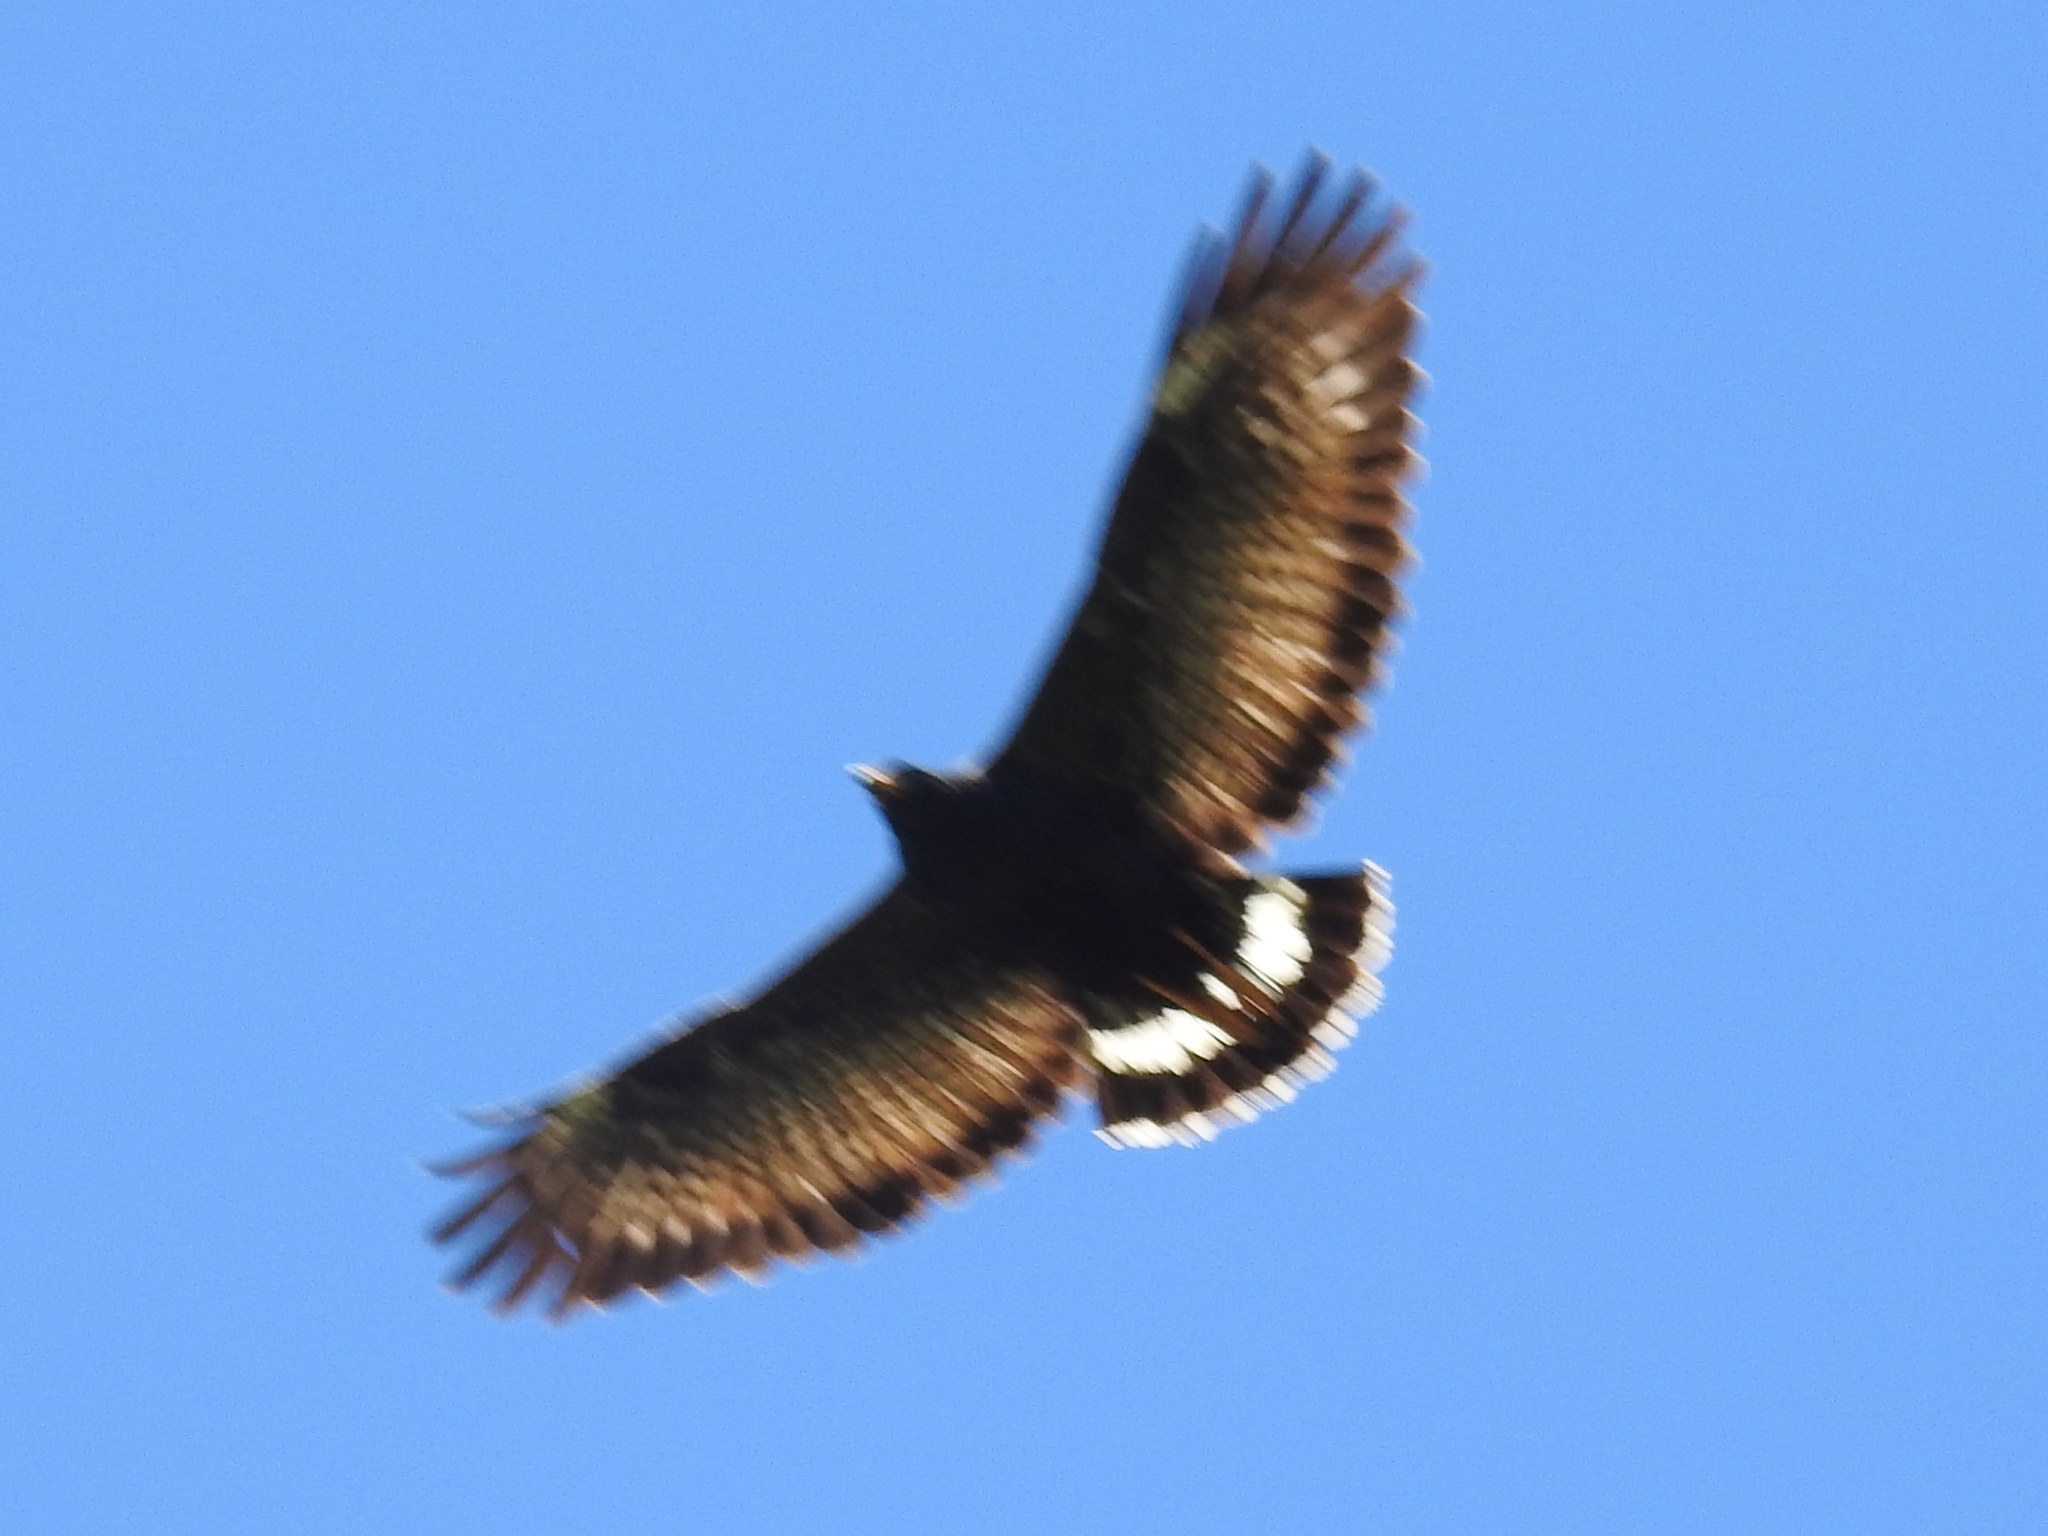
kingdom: Animalia
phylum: Chordata
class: Aves
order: Accipitriformes
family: Accipitridae
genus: Buteogallus
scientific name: Buteogallus anthracinus
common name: Common black hawk
